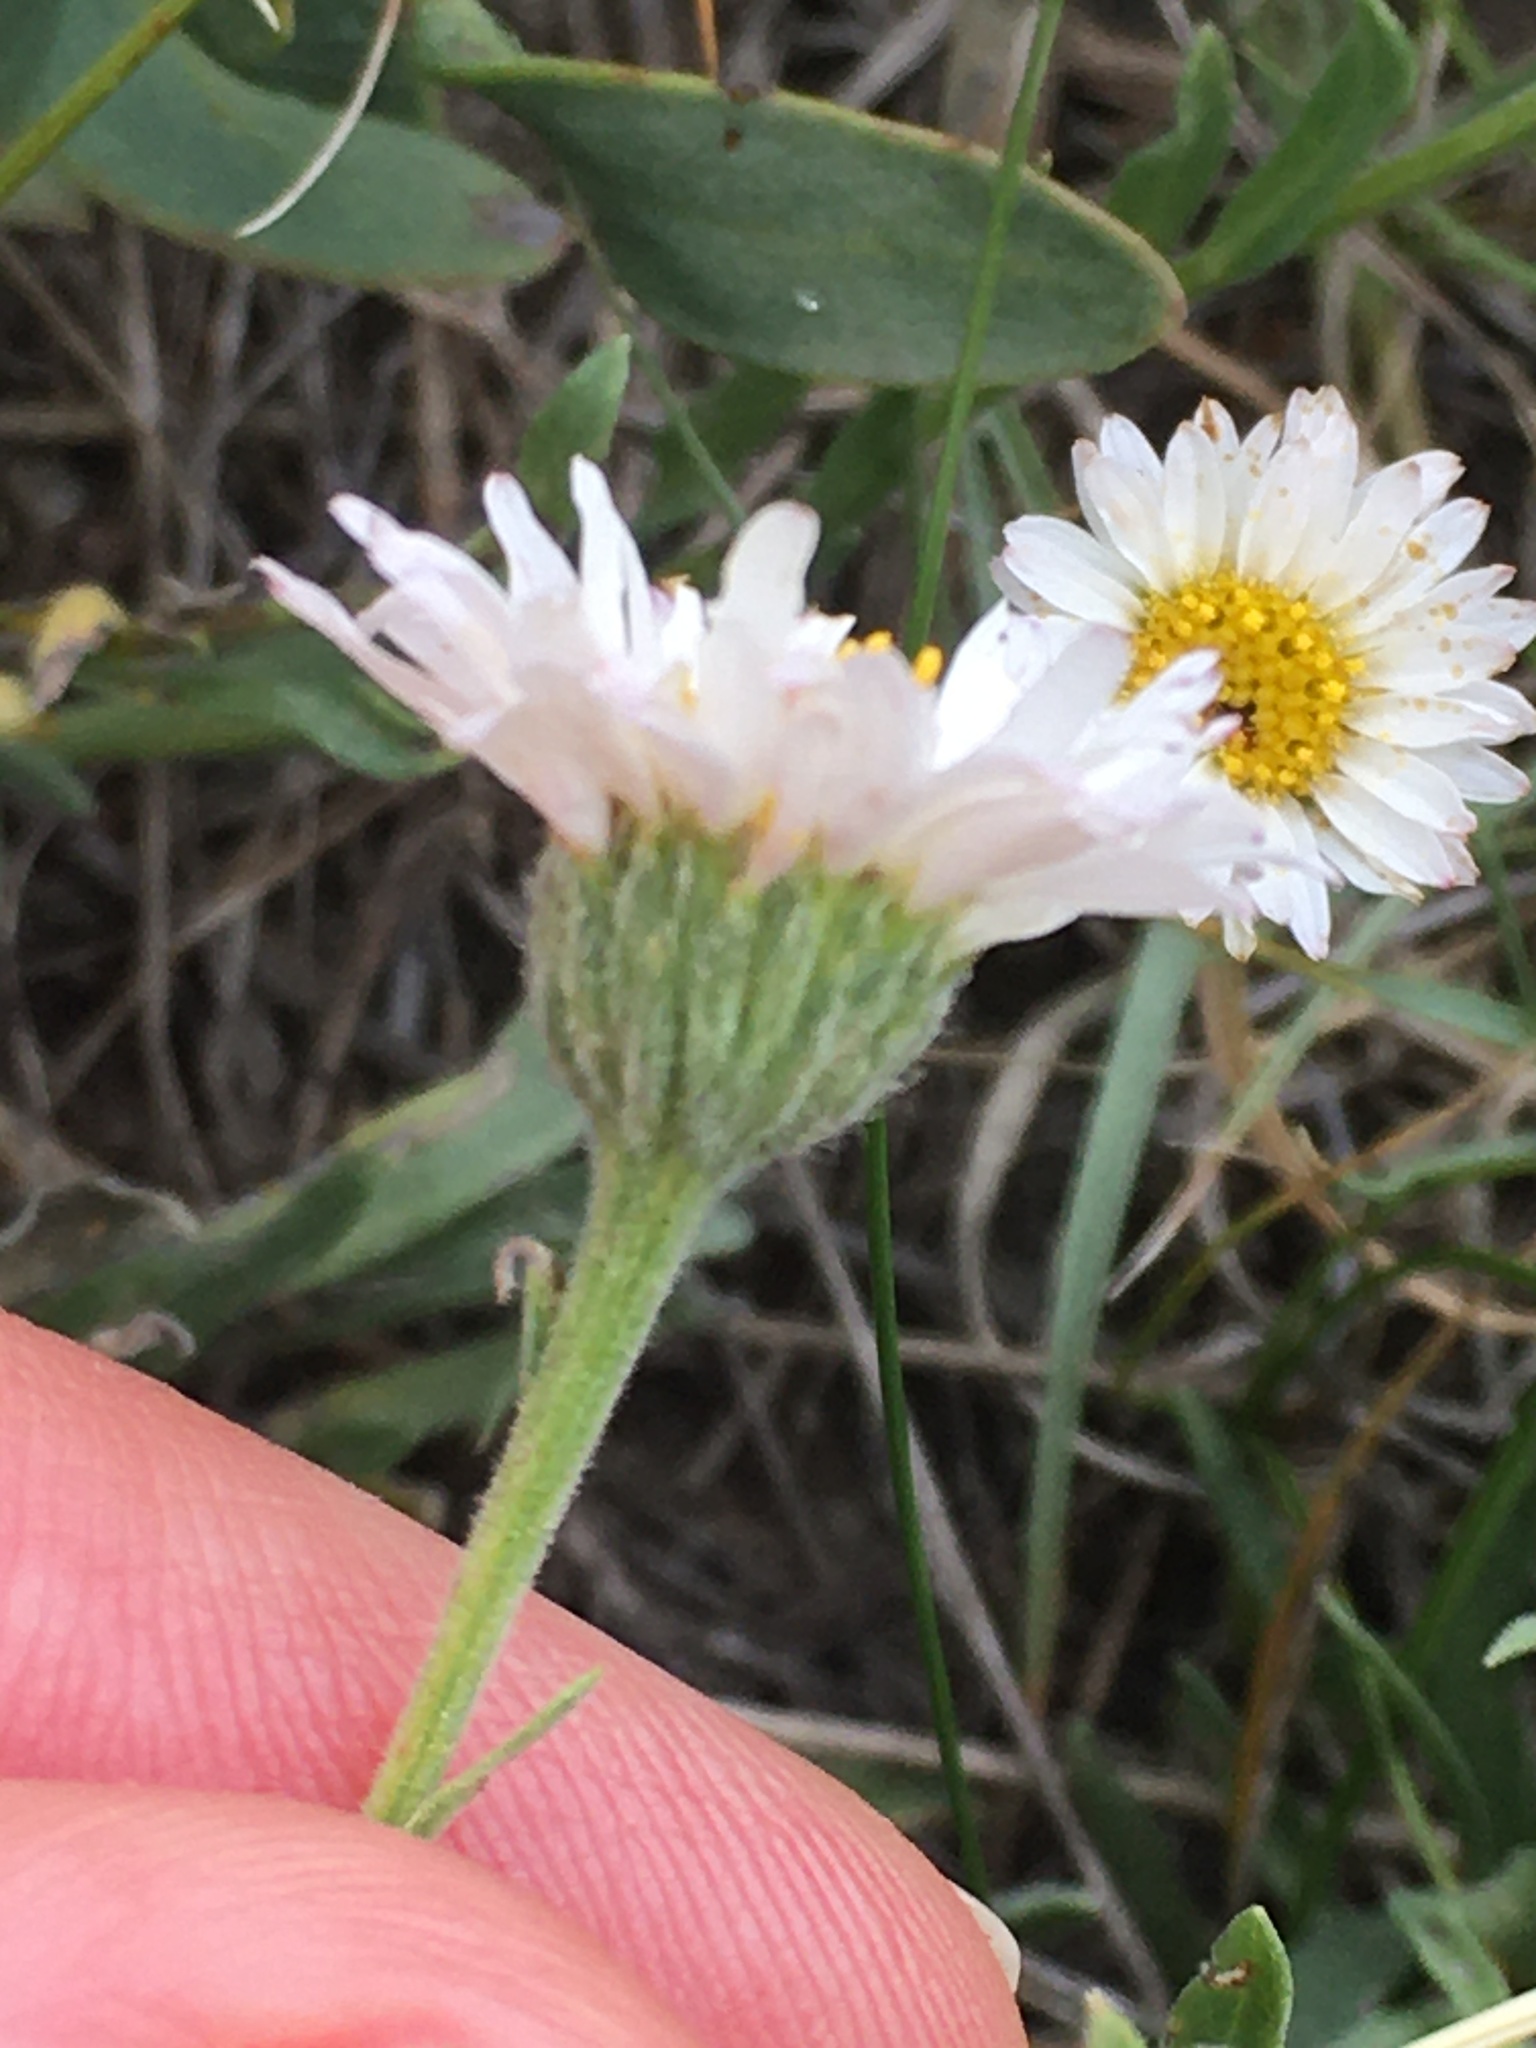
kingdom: Plantae
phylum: Tracheophyta
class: Magnoliopsida
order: Asterales
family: Asteraceae
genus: Erigeron
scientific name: Erigeron caespitosus
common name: Tufted fleabane
